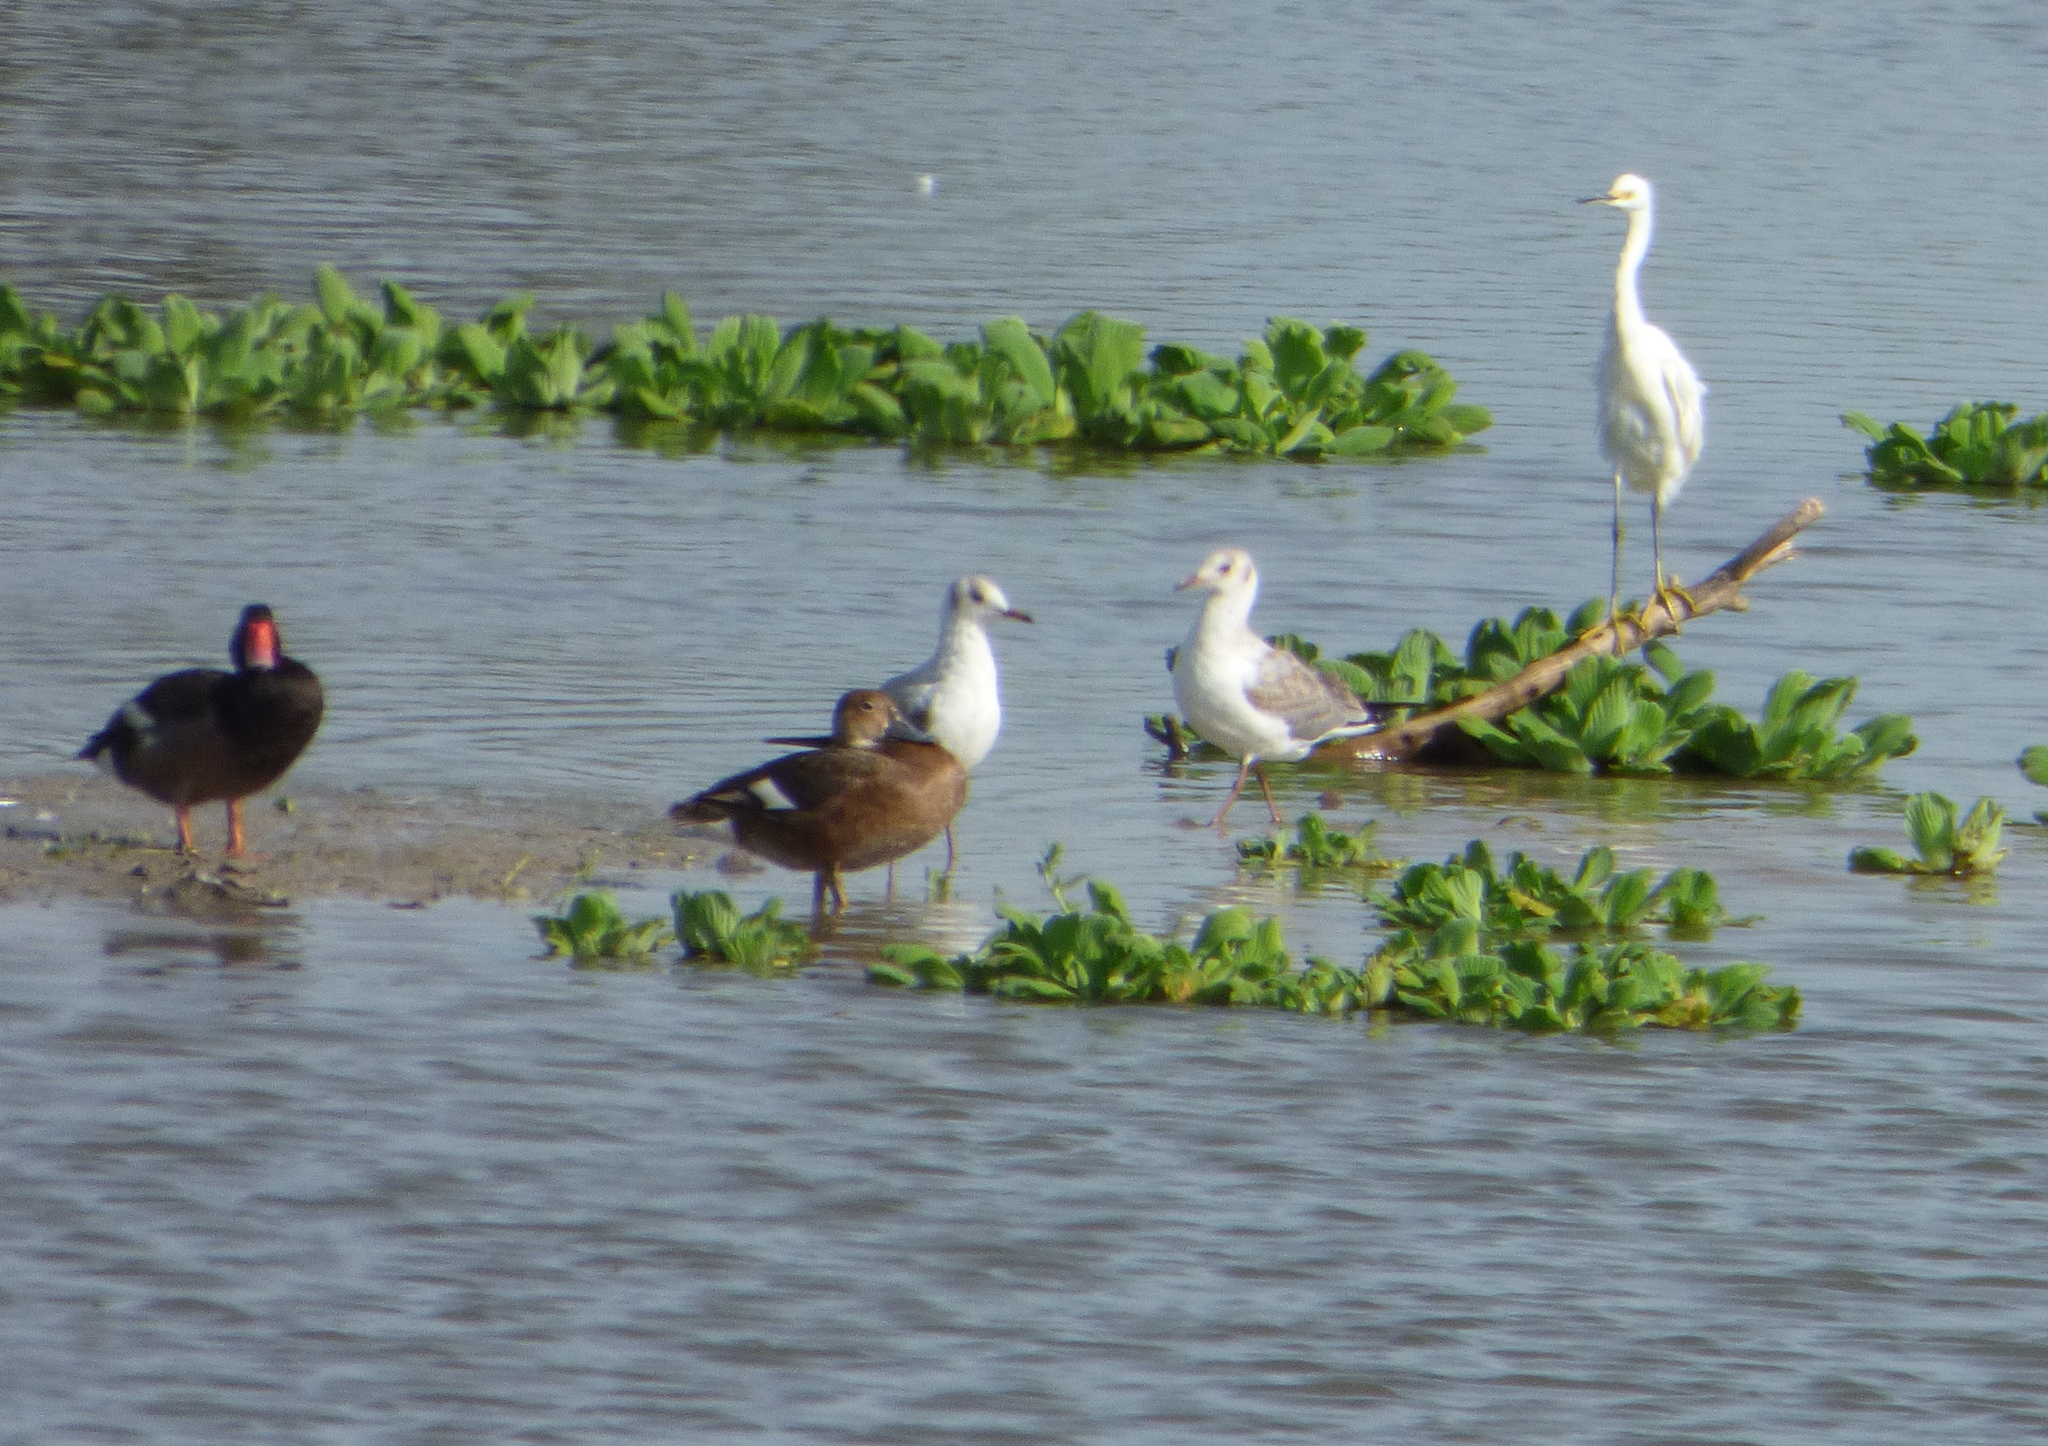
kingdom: Animalia
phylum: Chordata
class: Aves
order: Anseriformes
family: Anatidae
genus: Netta
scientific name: Netta peposaca
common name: Rosy-billed pochard
